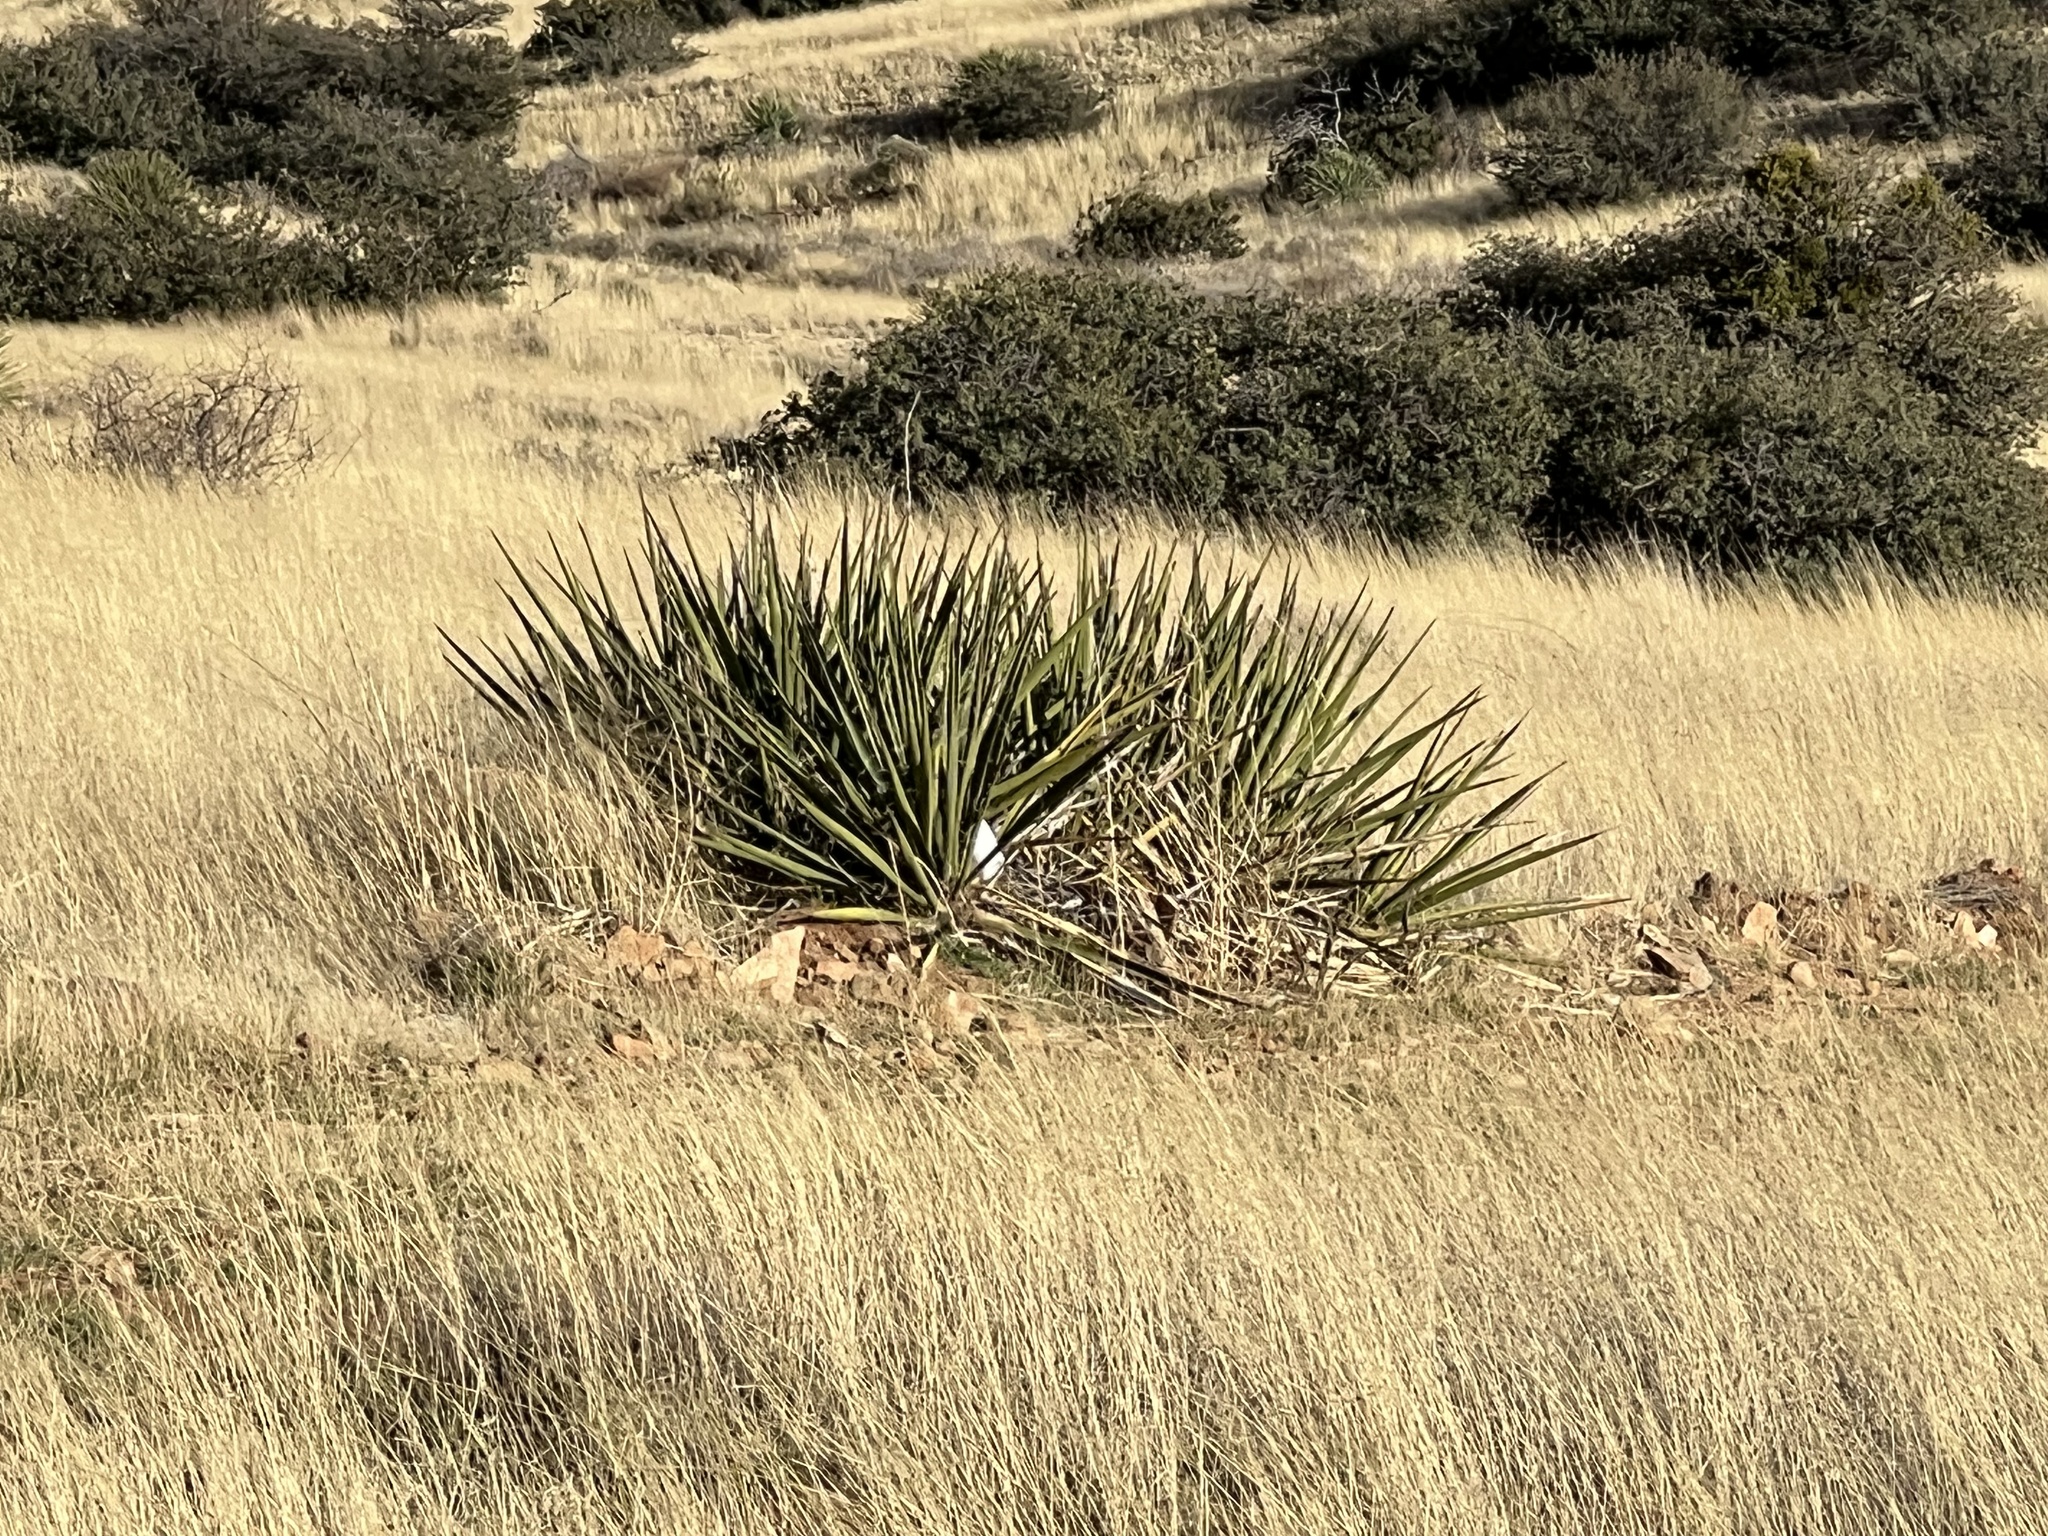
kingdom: Plantae
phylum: Tracheophyta
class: Liliopsida
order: Asparagales
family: Asparagaceae
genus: Yucca
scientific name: Yucca baccata
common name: Banana yucca
